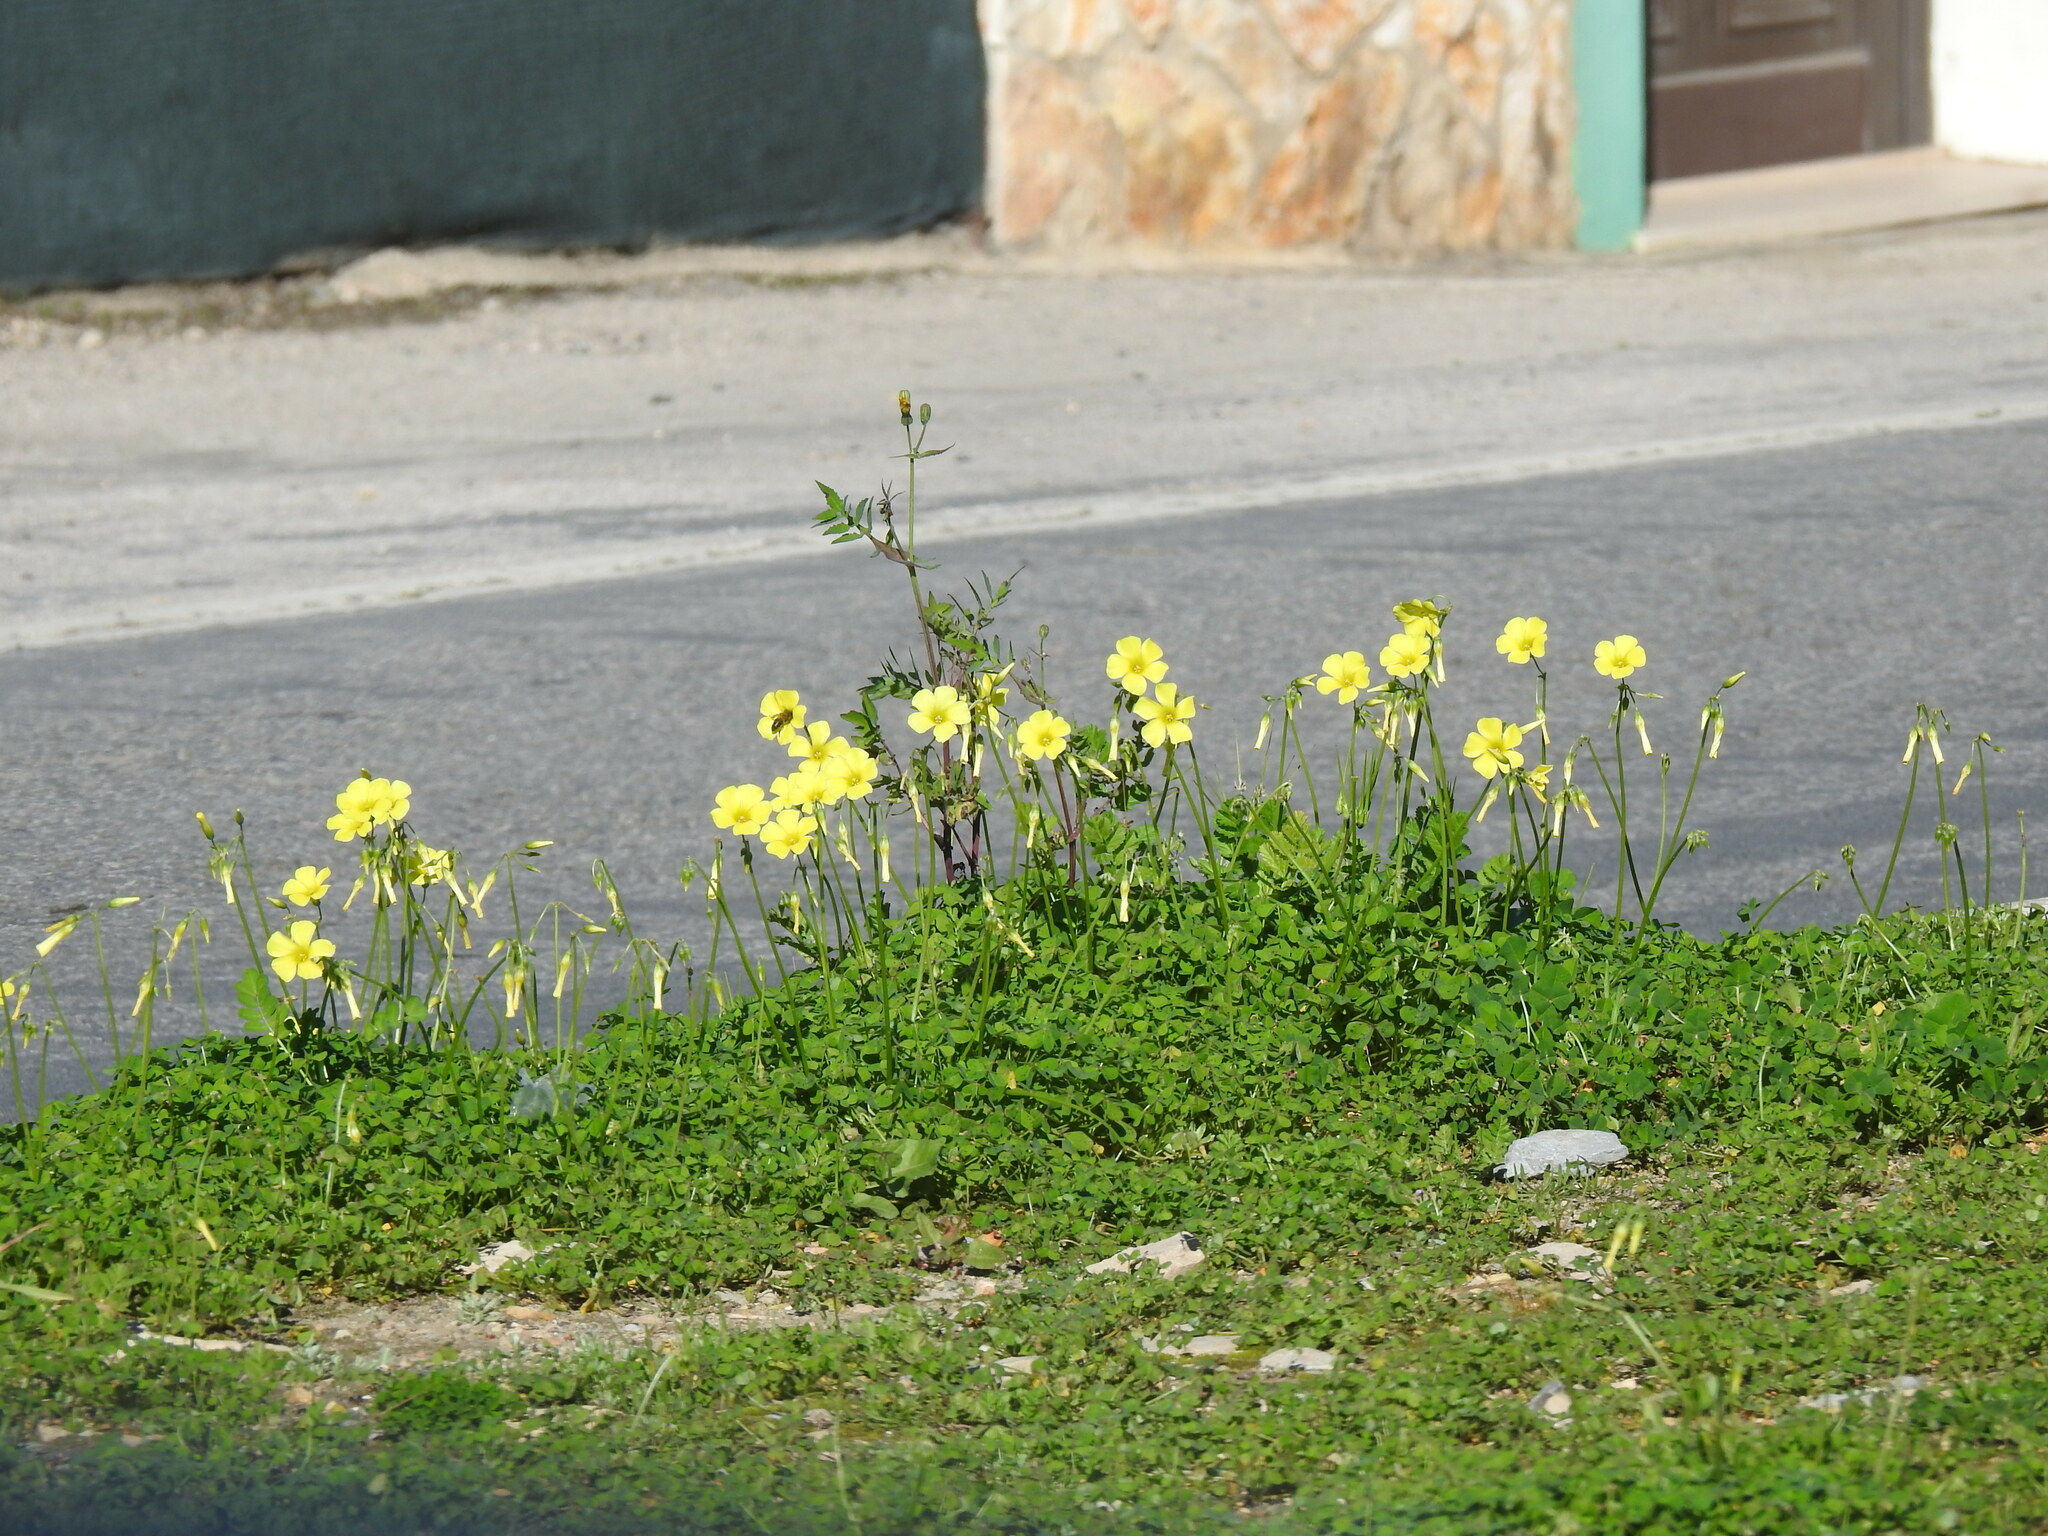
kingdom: Plantae
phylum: Tracheophyta
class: Magnoliopsida
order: Oxalidales
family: Oxalidaceae
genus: Oxalis
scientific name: Oxalis pes-caprae
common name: Bermuda-buttercup
